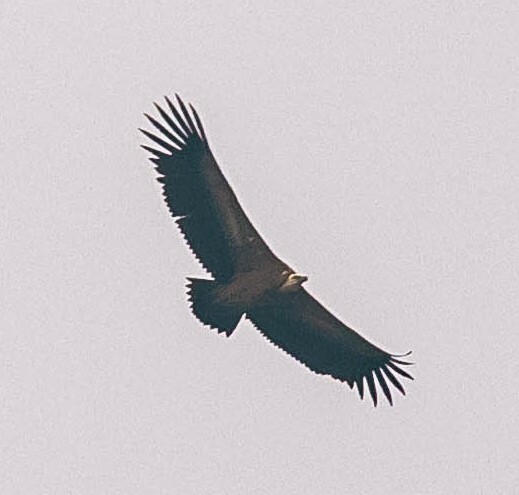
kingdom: Animalia
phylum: Chordata
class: Aves
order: Accipitriformes
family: Accipitridae
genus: Gyps
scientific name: Gyps fulvus
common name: Griffon vulture
